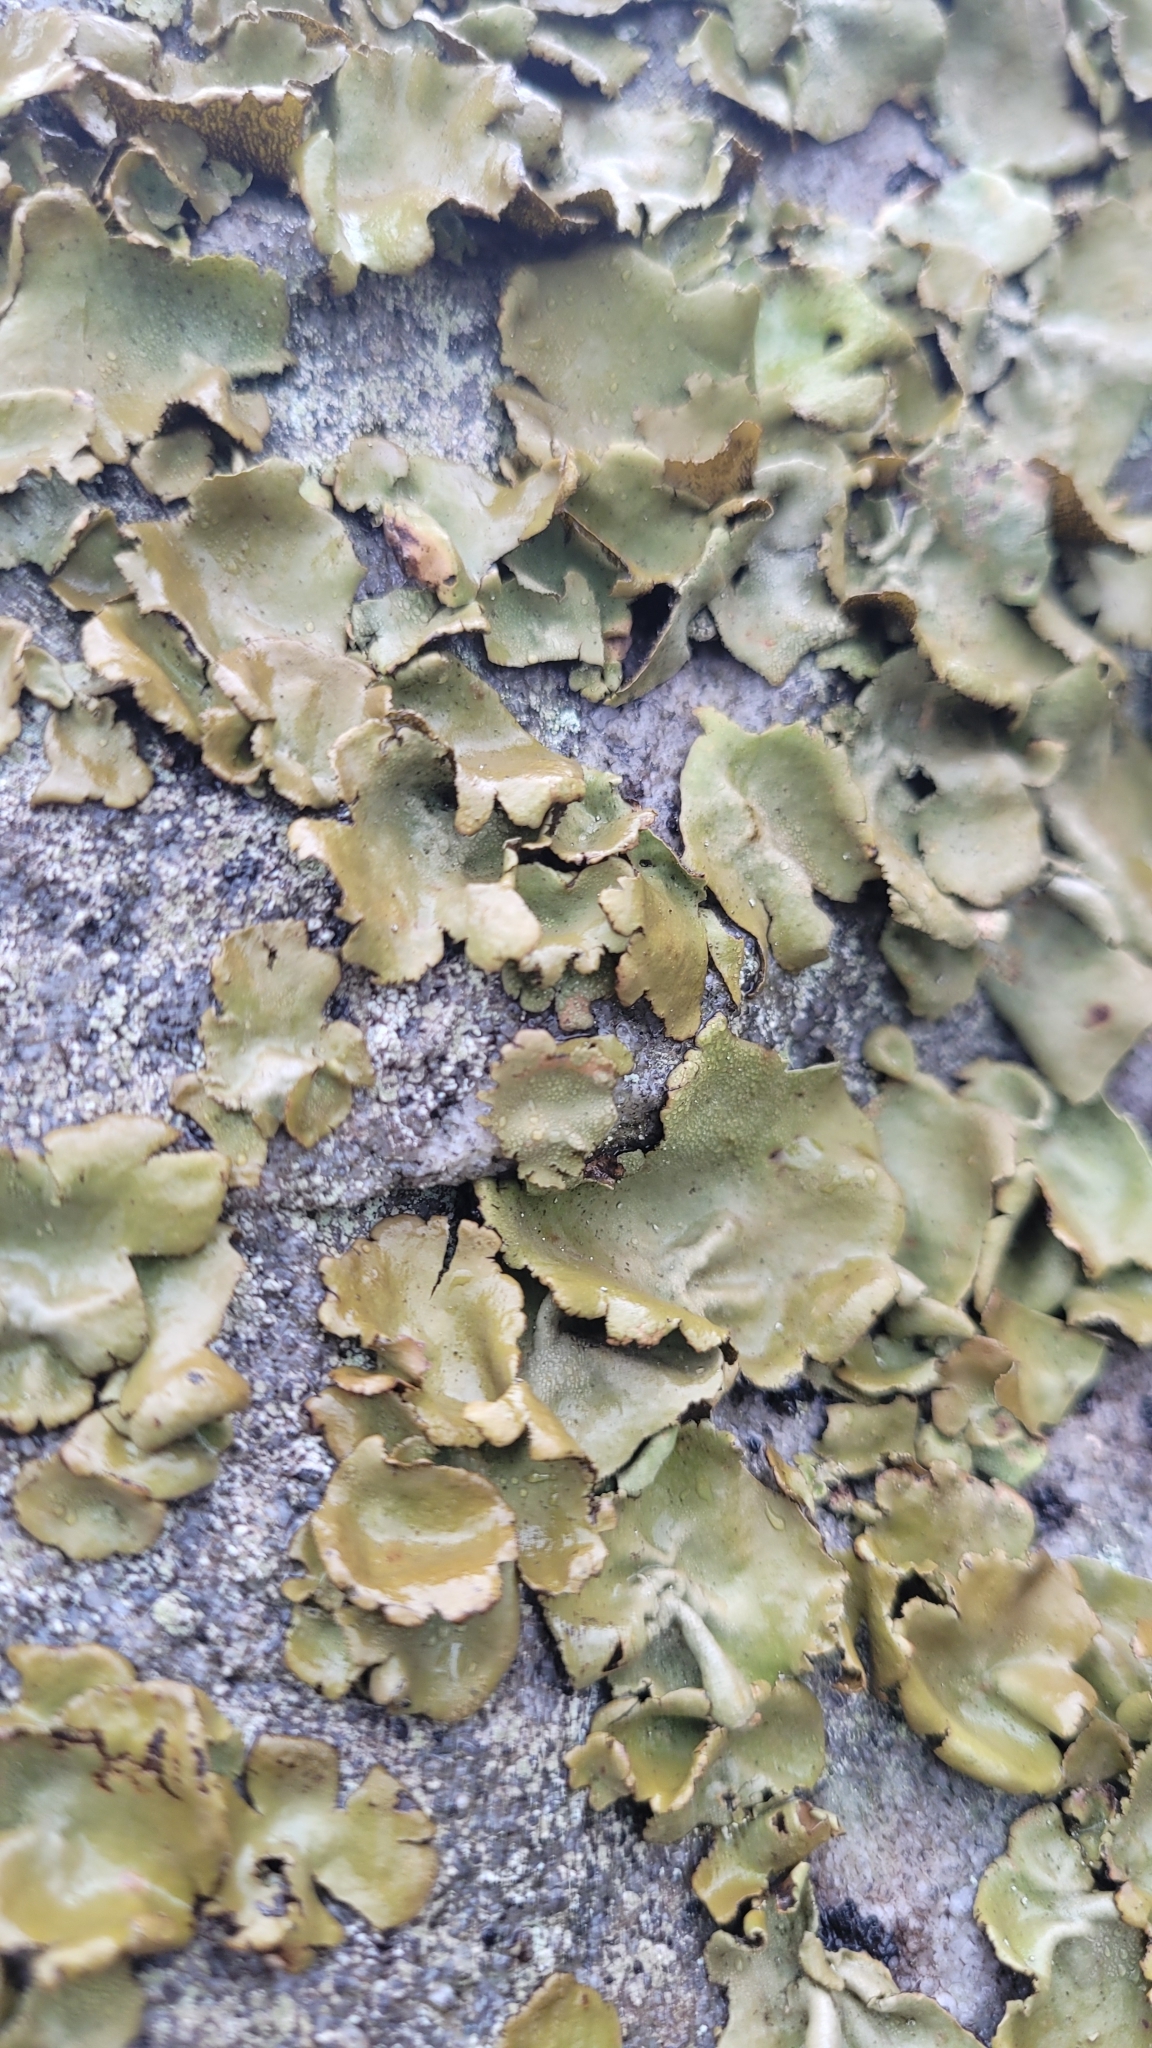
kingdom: Fungi
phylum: Ascomycota
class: Lecanoromycetes
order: Umbilicariales
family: Umbilicariaceae
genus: Umbilicaria
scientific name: Umbilicaria mammulata
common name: Smooth rock tripe
